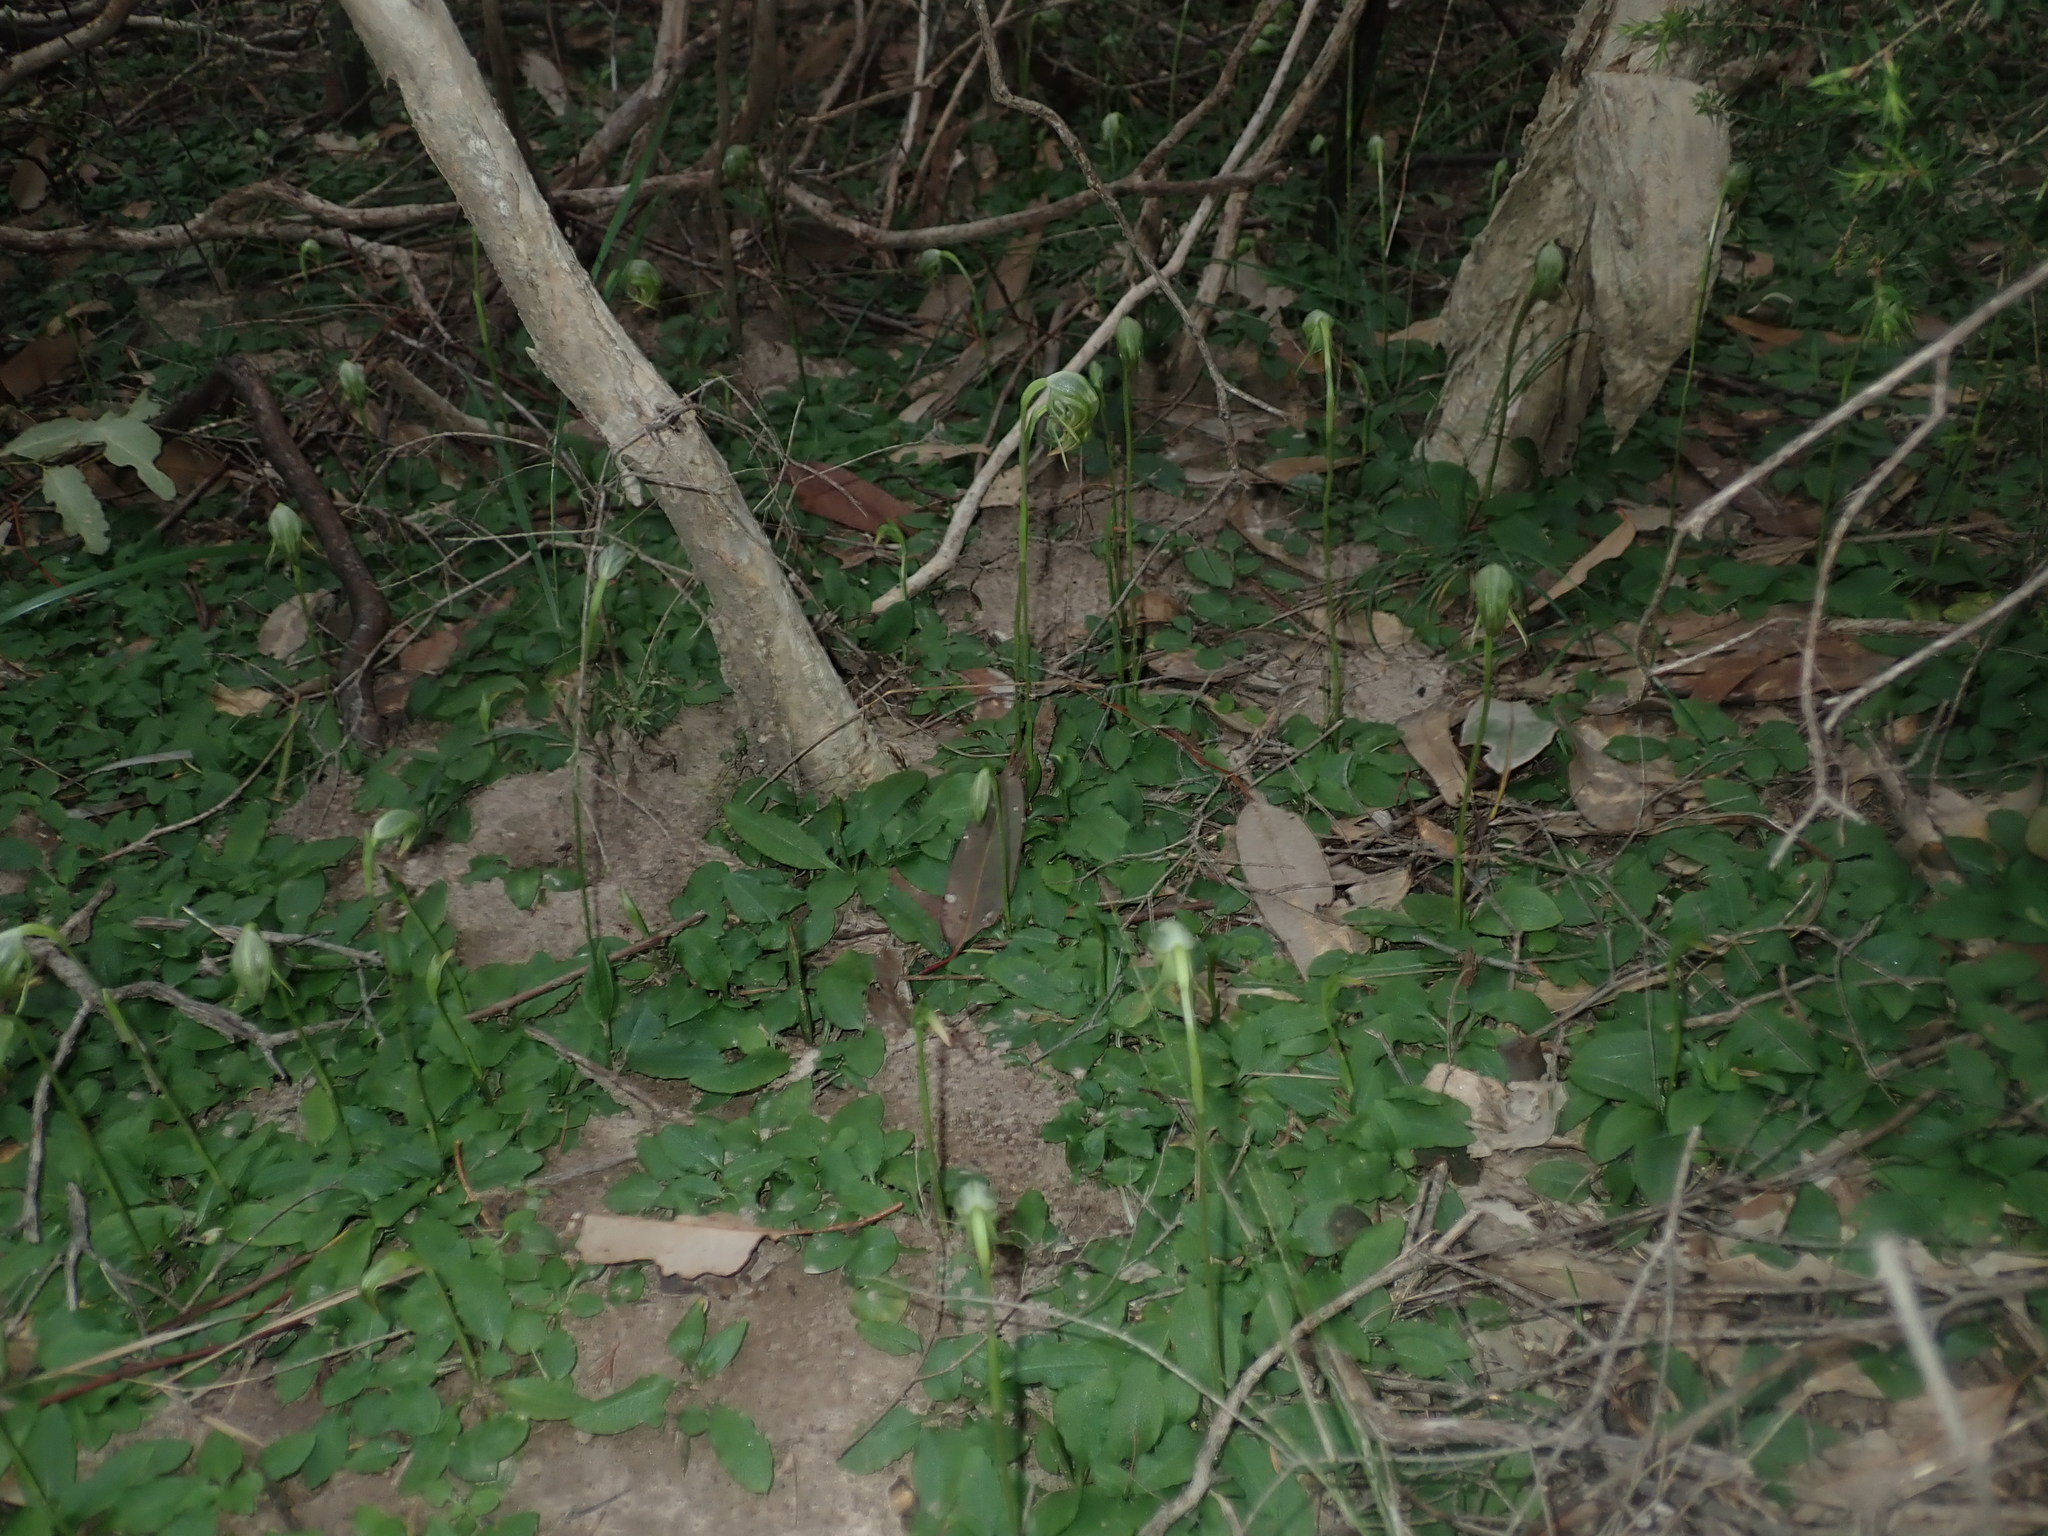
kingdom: Plantae
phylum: Tracheophyta
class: Liliopsida
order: Asparagales
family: Orchidaceae
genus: Pterostylis
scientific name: Pterostylis nutans
